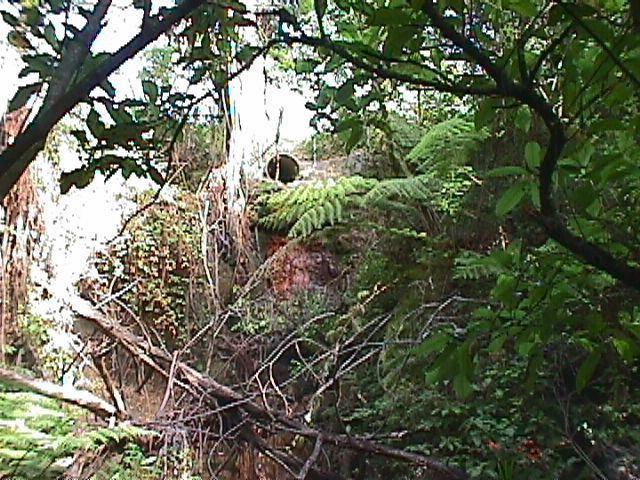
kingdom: Plantae
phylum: Tracheophyta
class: Liliopsida
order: Commelinales
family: Commelinaceae
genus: Tradescantia
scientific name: Tradescantia fluminensis
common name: Wandering-jew
